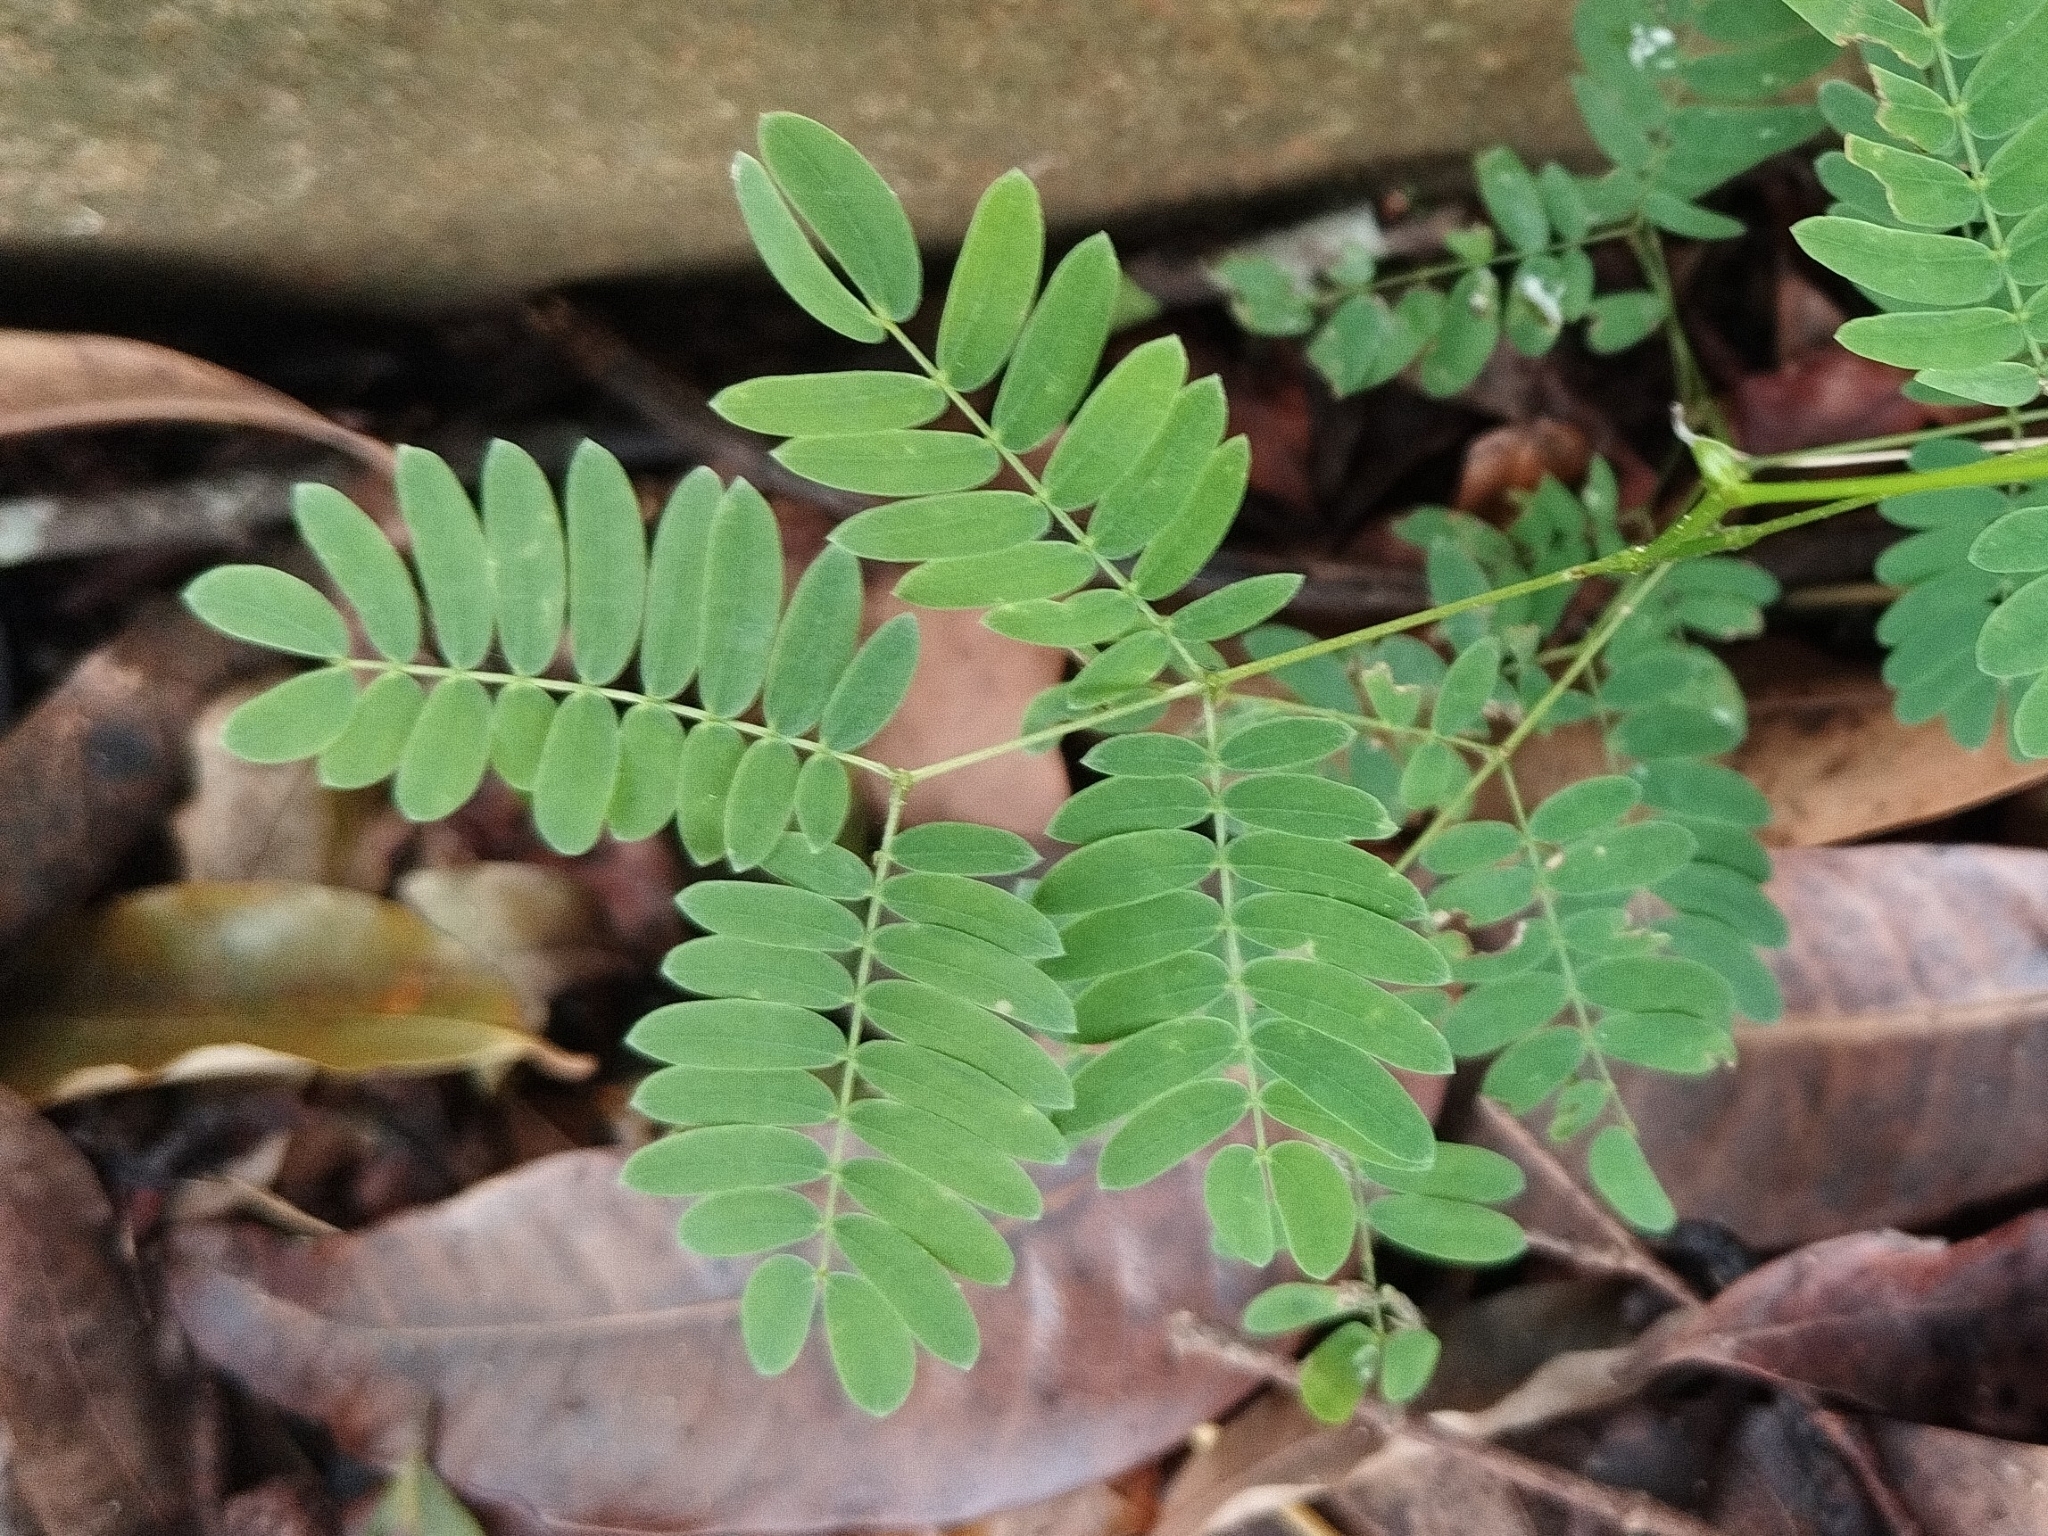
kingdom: Plantae
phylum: Tracheophyta
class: Magnoliopsida
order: Fabales
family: Fabaceae
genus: Leucaena
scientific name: Leucaena leucocephala
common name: White leadtree
